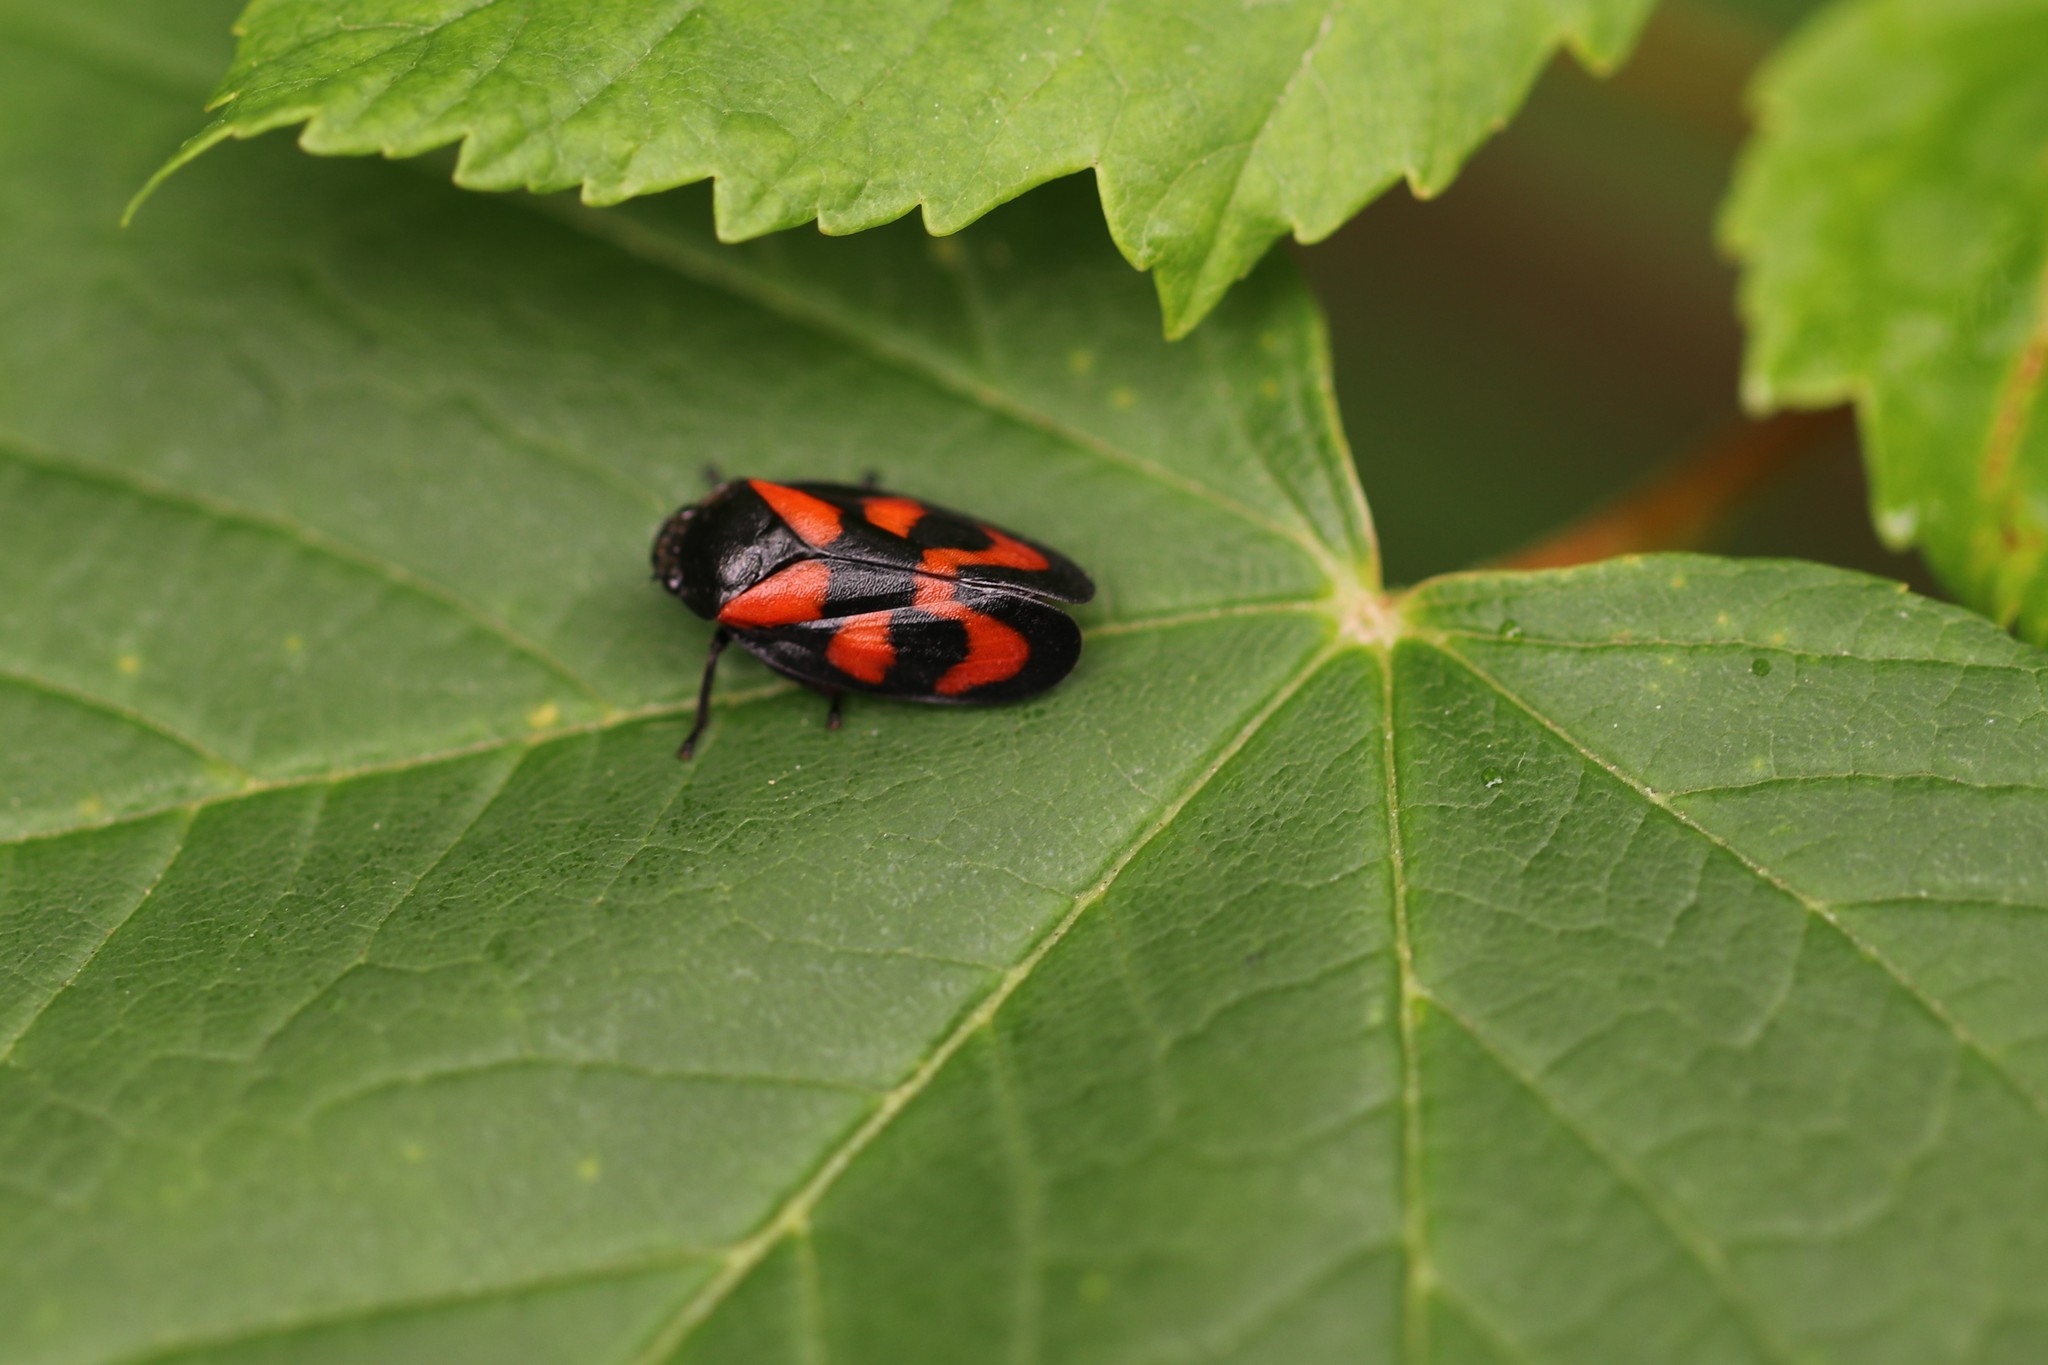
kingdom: Animalia
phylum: Arthropoda
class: Insecta
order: Hemiptera
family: Cercopidae
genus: Cercopis
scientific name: Cercopis vulnerata
